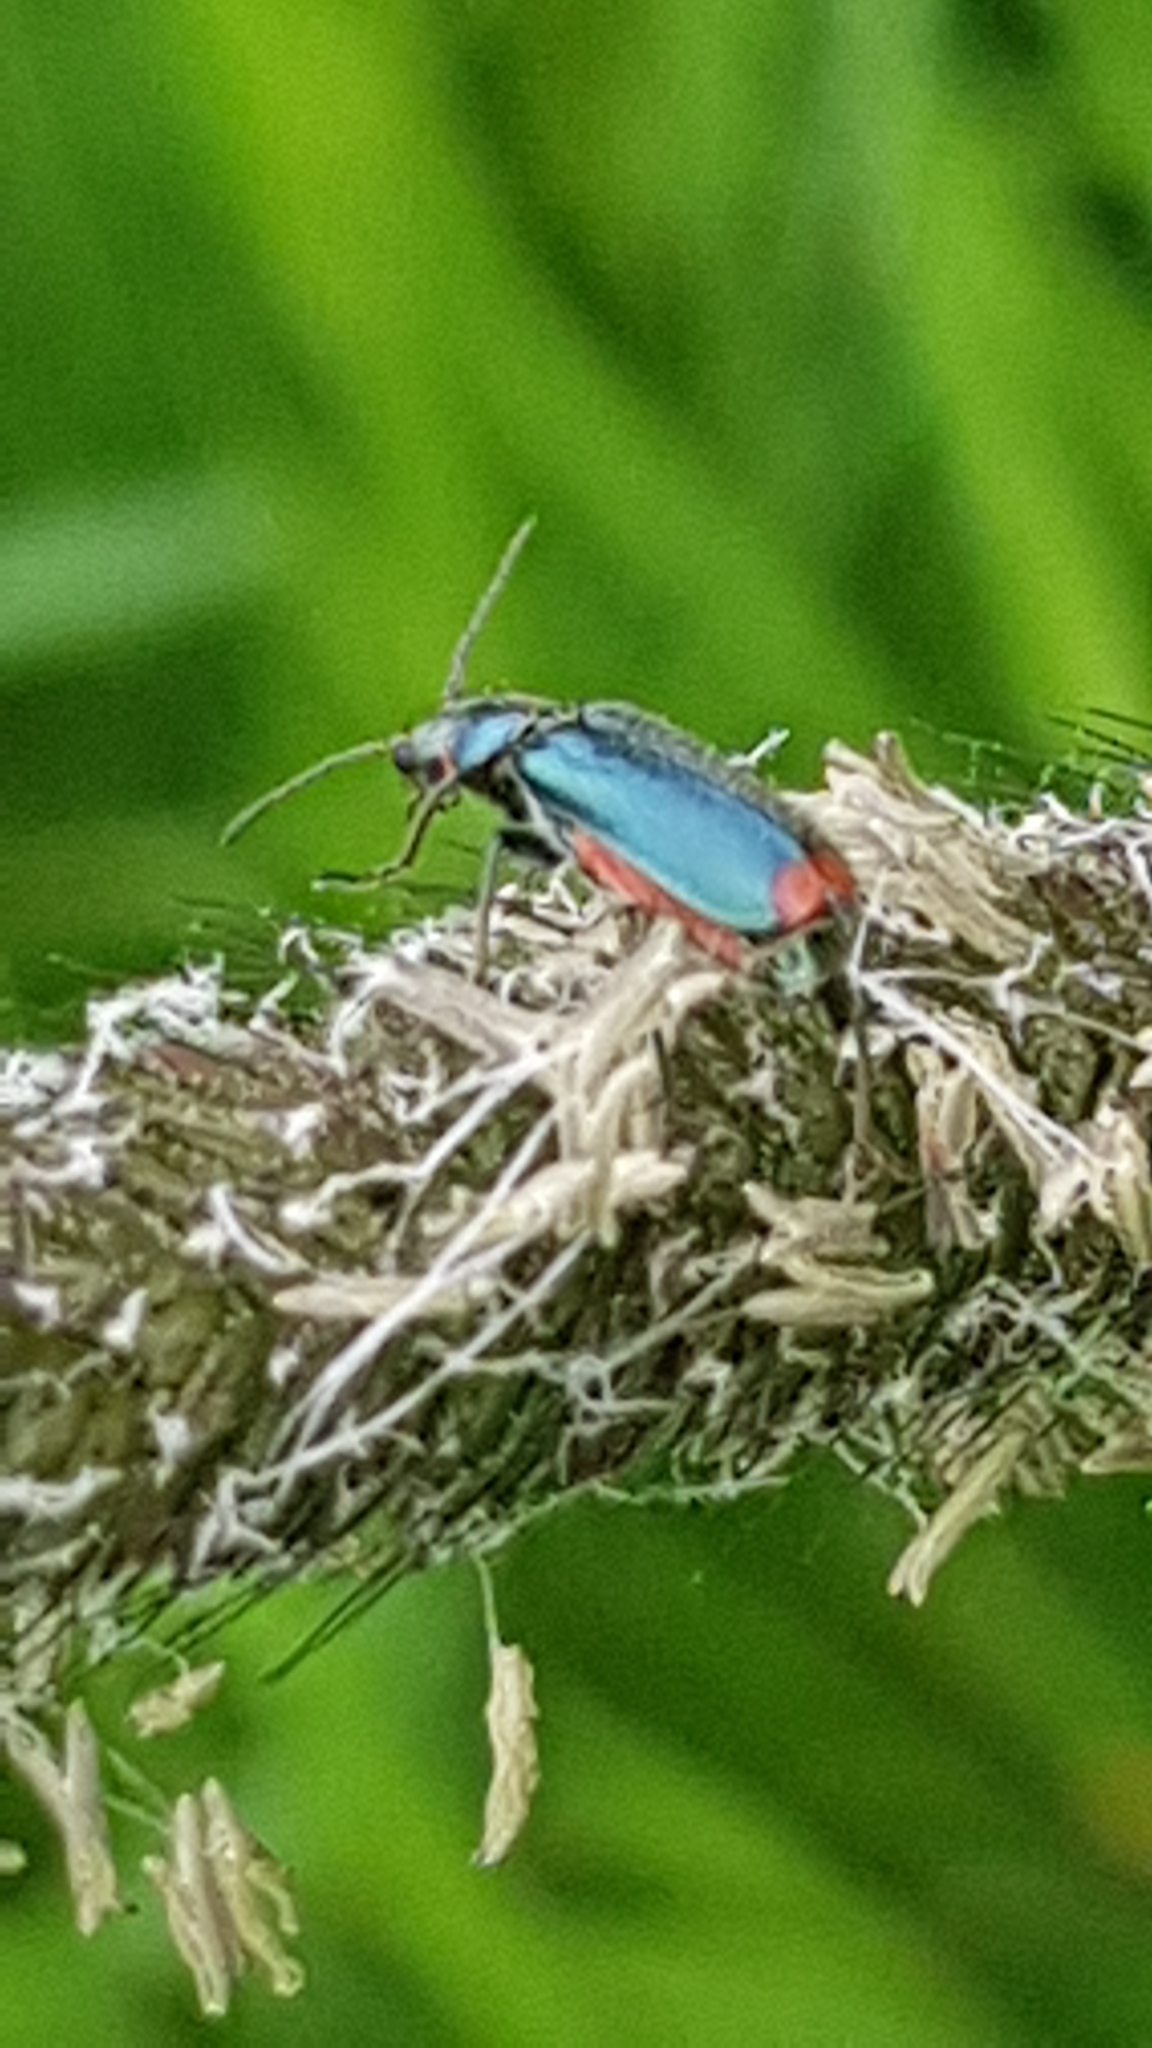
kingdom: Animalia
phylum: Arthropoda
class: Insecta
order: Coleoptera
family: Melyridae
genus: Malachius
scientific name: Malachius bipustulatus
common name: Malachite beetle
